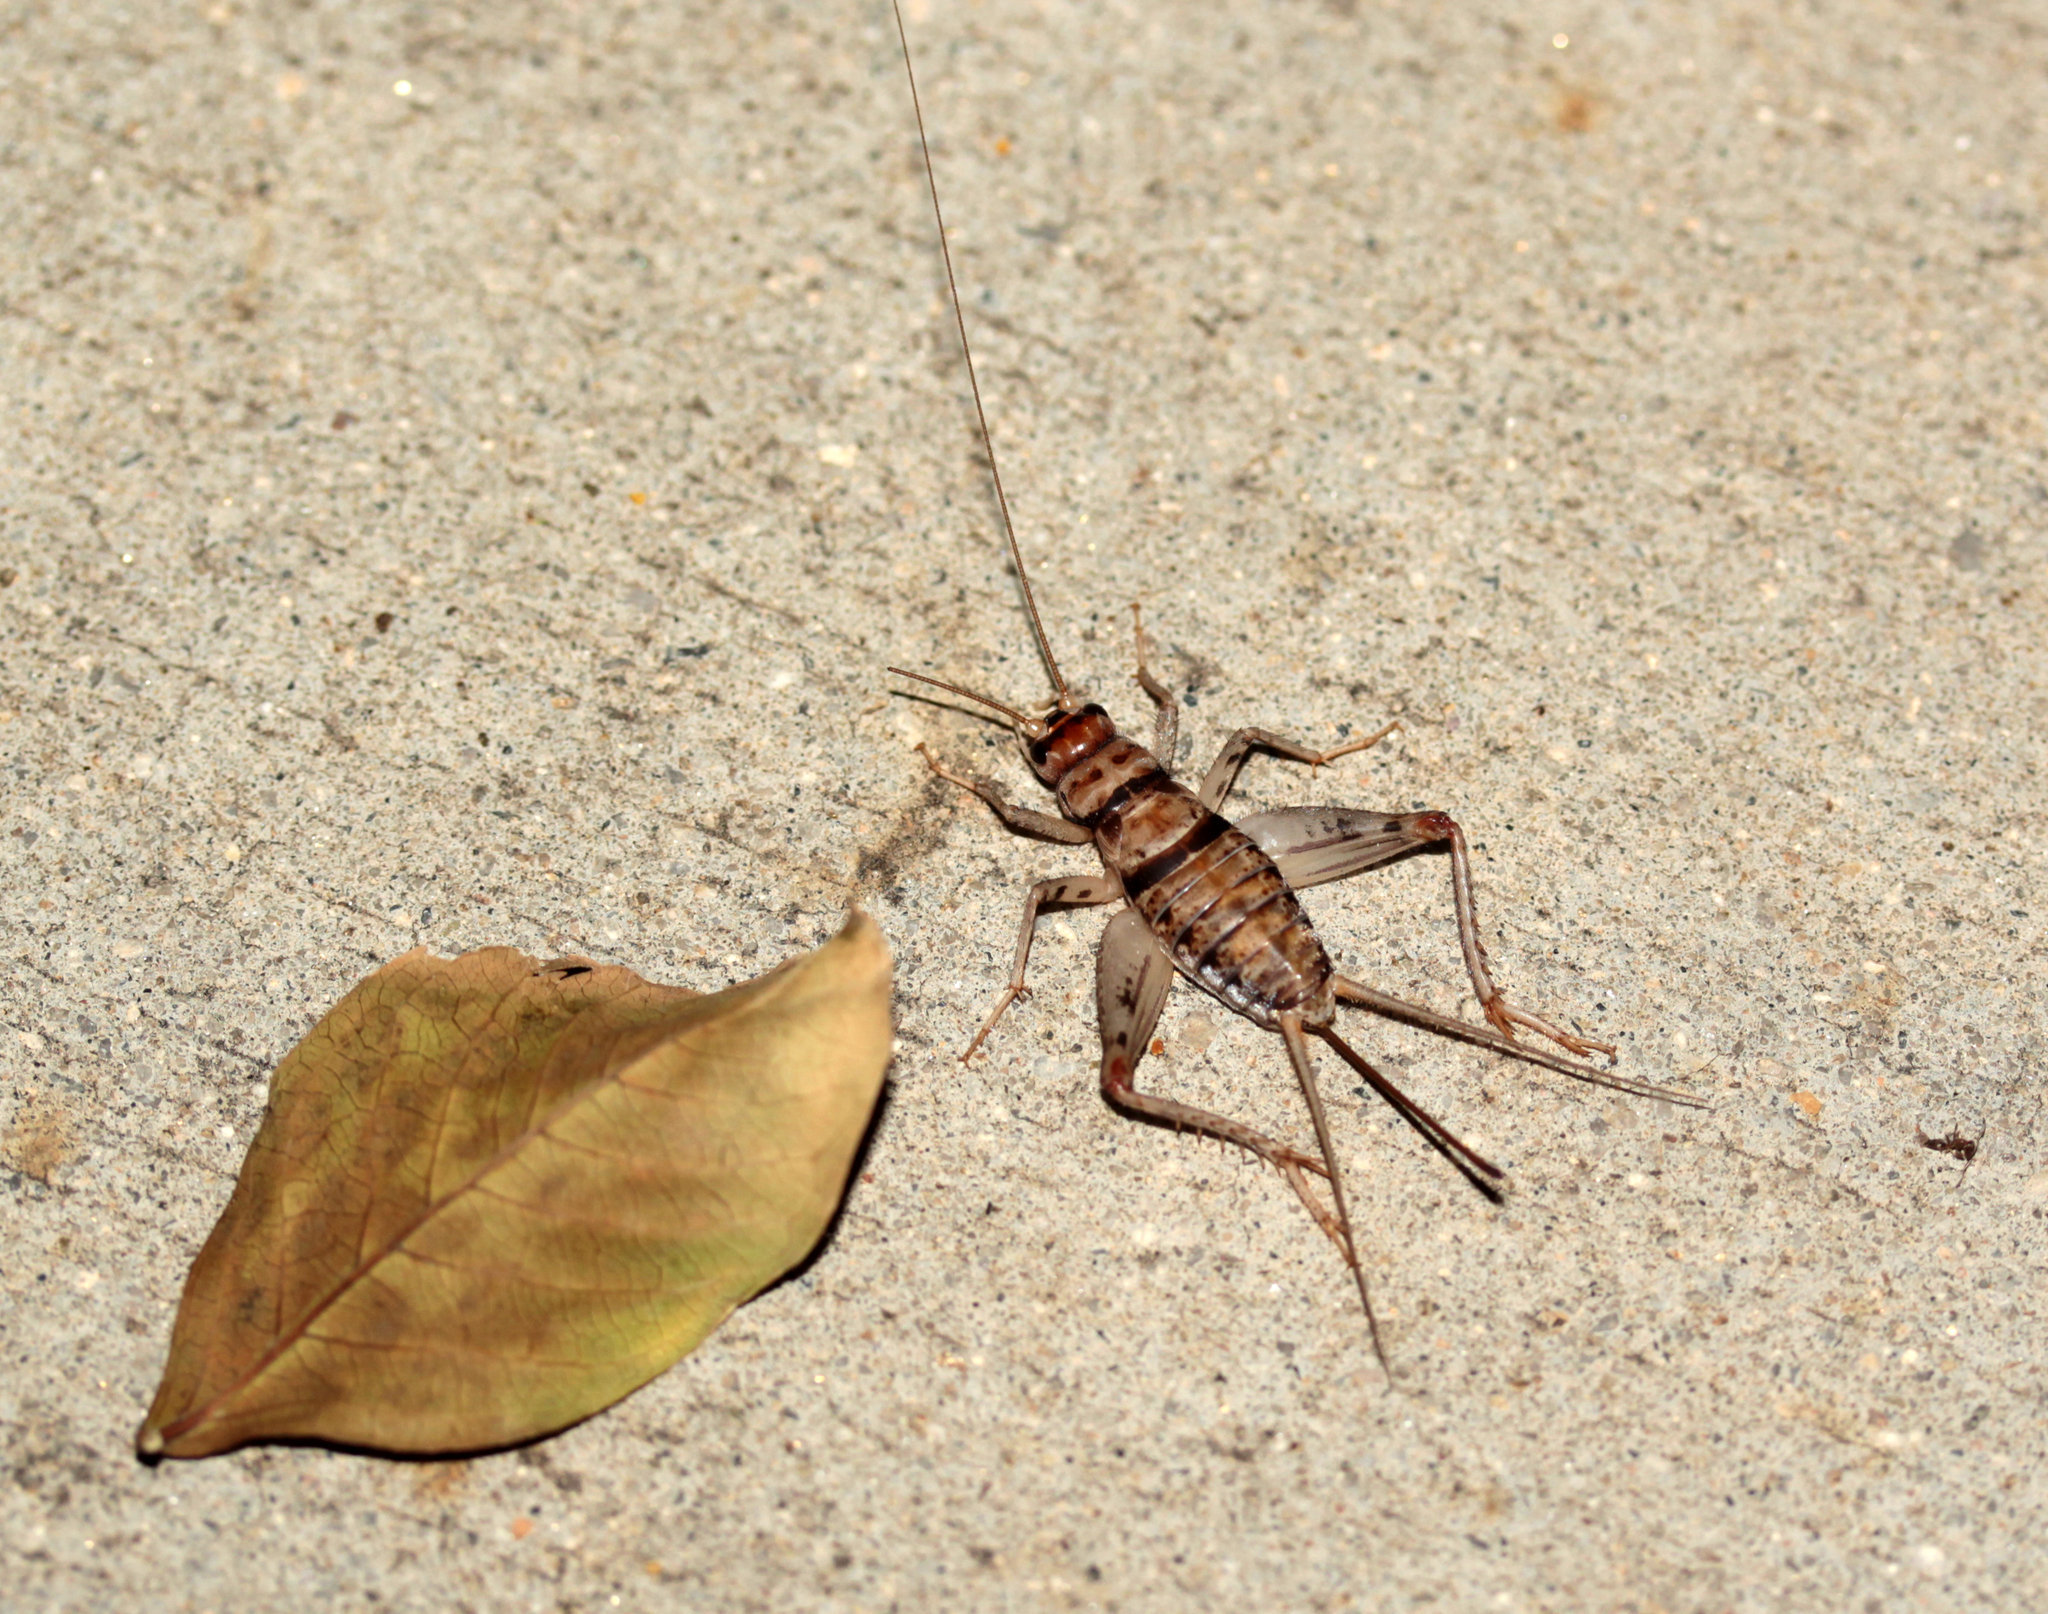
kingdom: Animalia
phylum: Arthropoda
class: Insecta
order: Orthoptera
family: Gryllidae
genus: Gryllodes
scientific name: Gryllodes sigillatus
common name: Tropical house cricket
